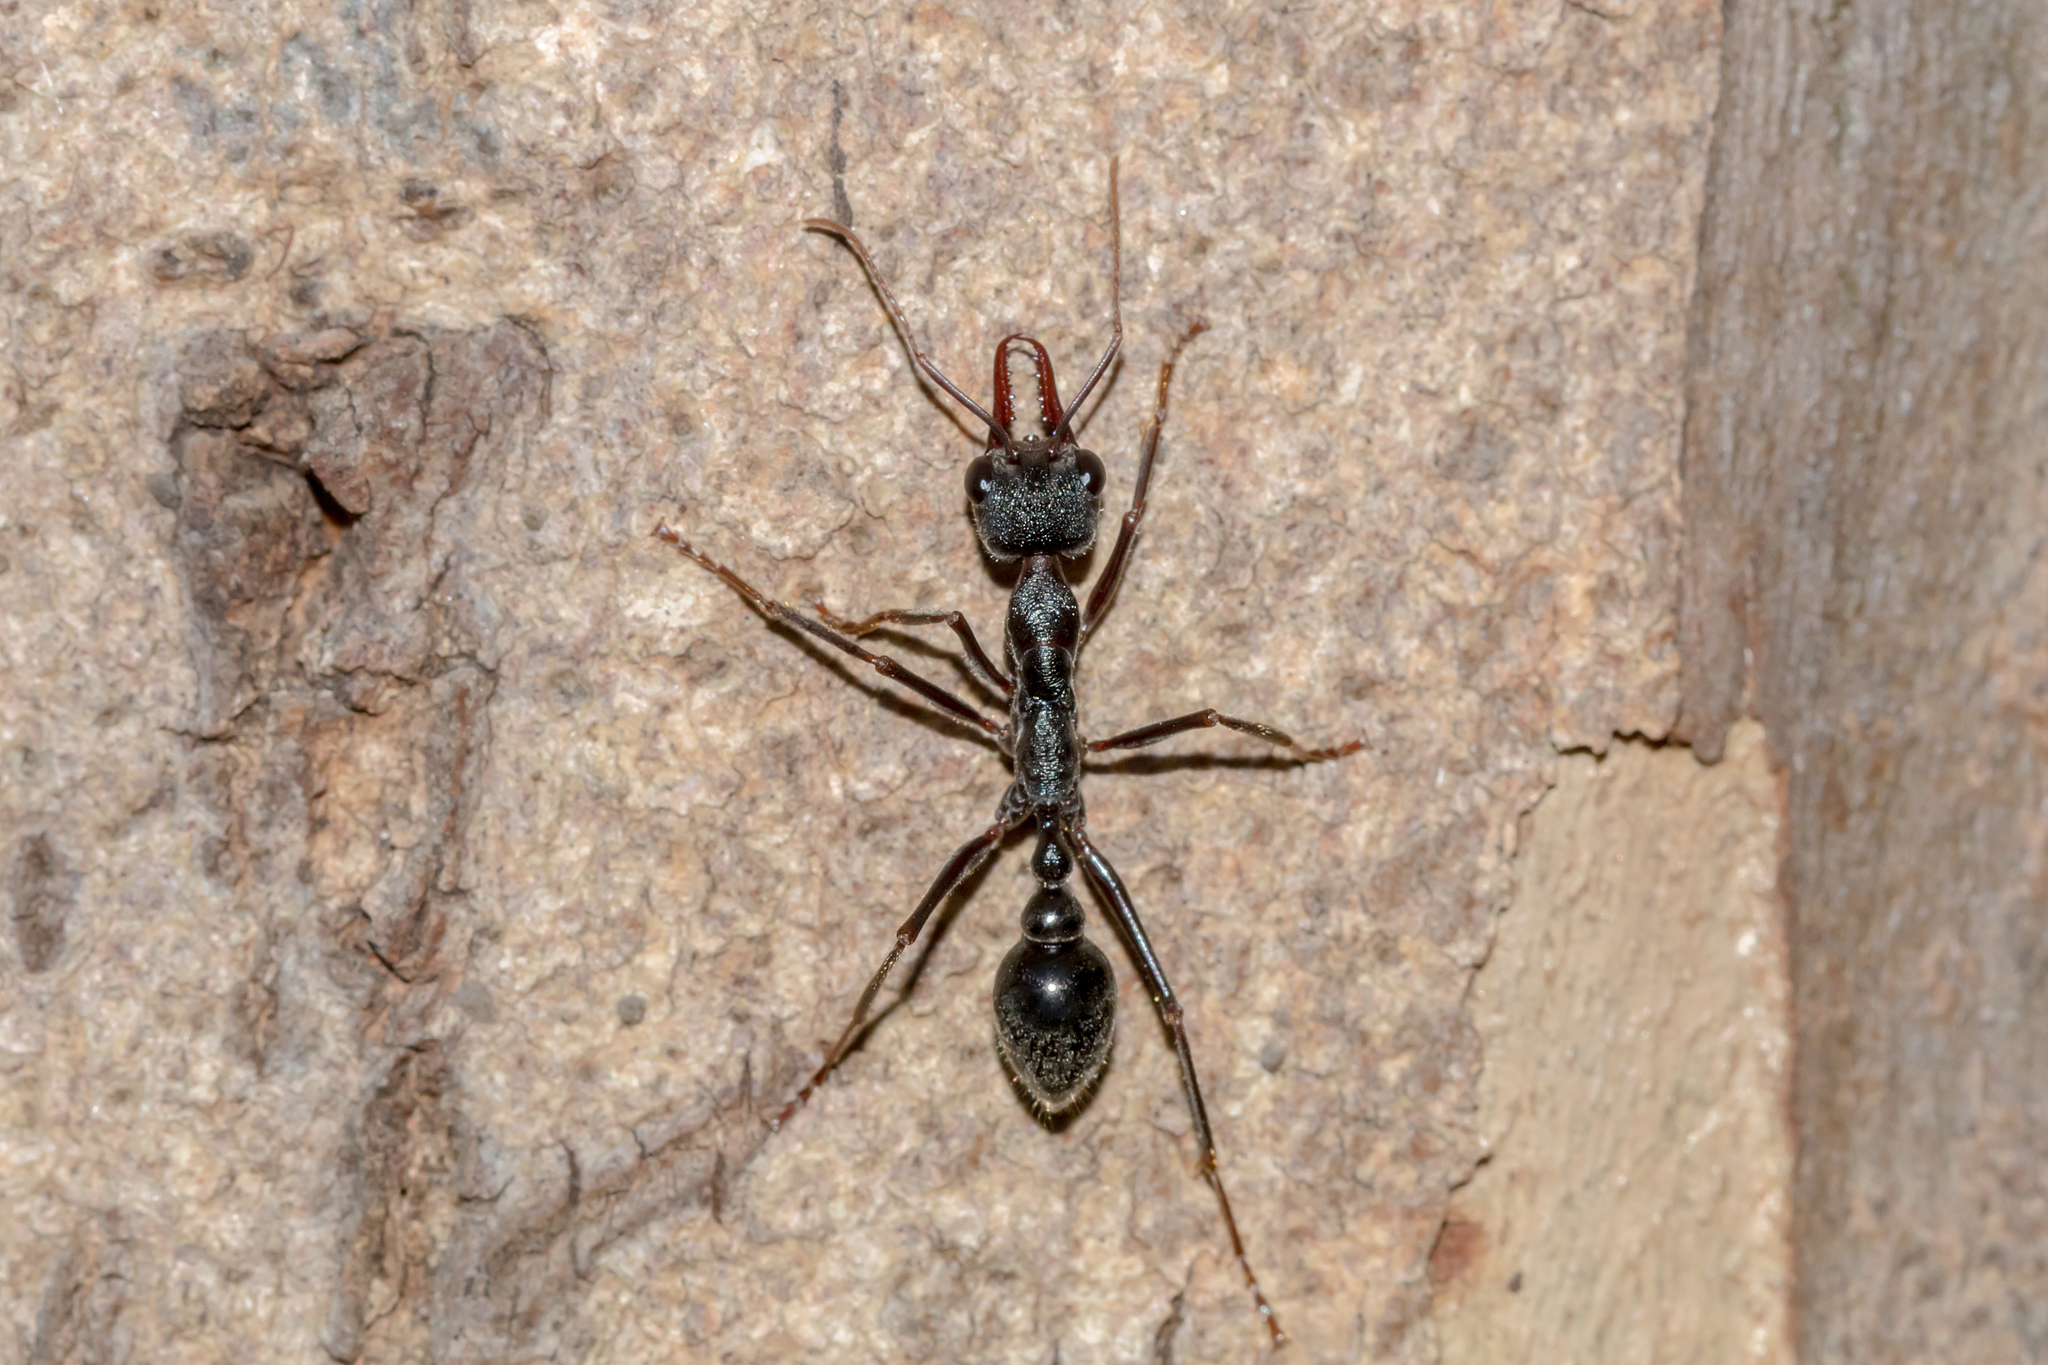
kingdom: Animalia
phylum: Arthropoda
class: Insecta
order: Hymenoptera
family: Formicidae
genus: Myrmecia
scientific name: Myrmecia pyriformis
